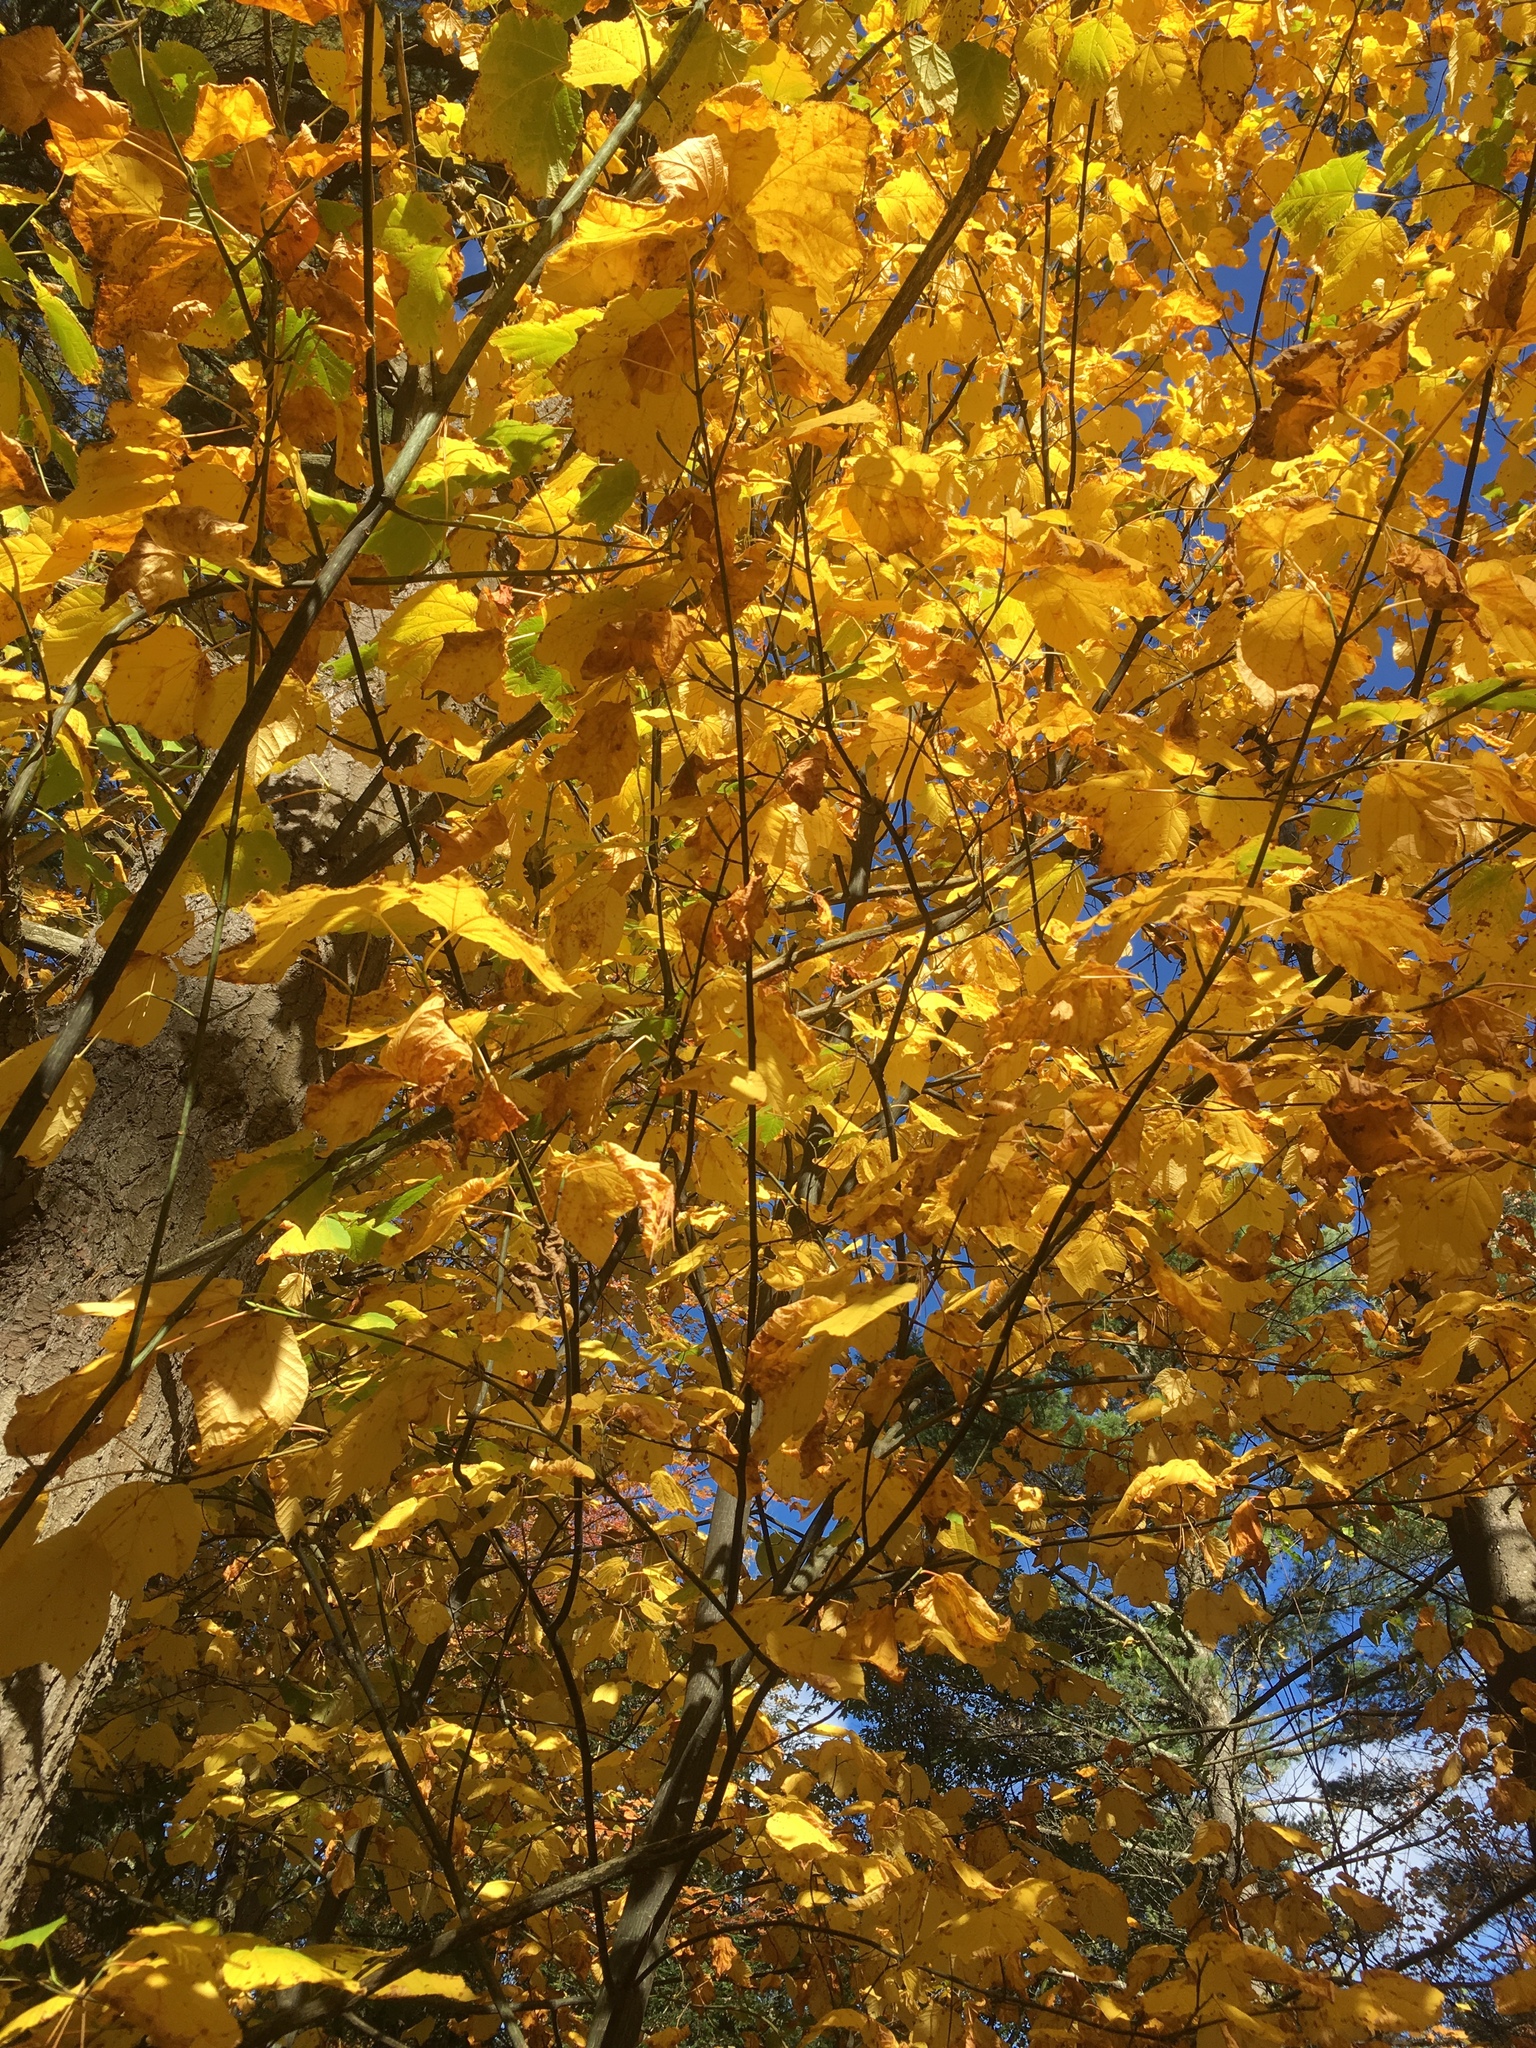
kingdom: Plantae
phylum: Tracheophyta
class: Magnoliopsida
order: Sapindales
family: Sapindaceae
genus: Acer
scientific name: Acer pensylvanicum
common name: Moosewood
